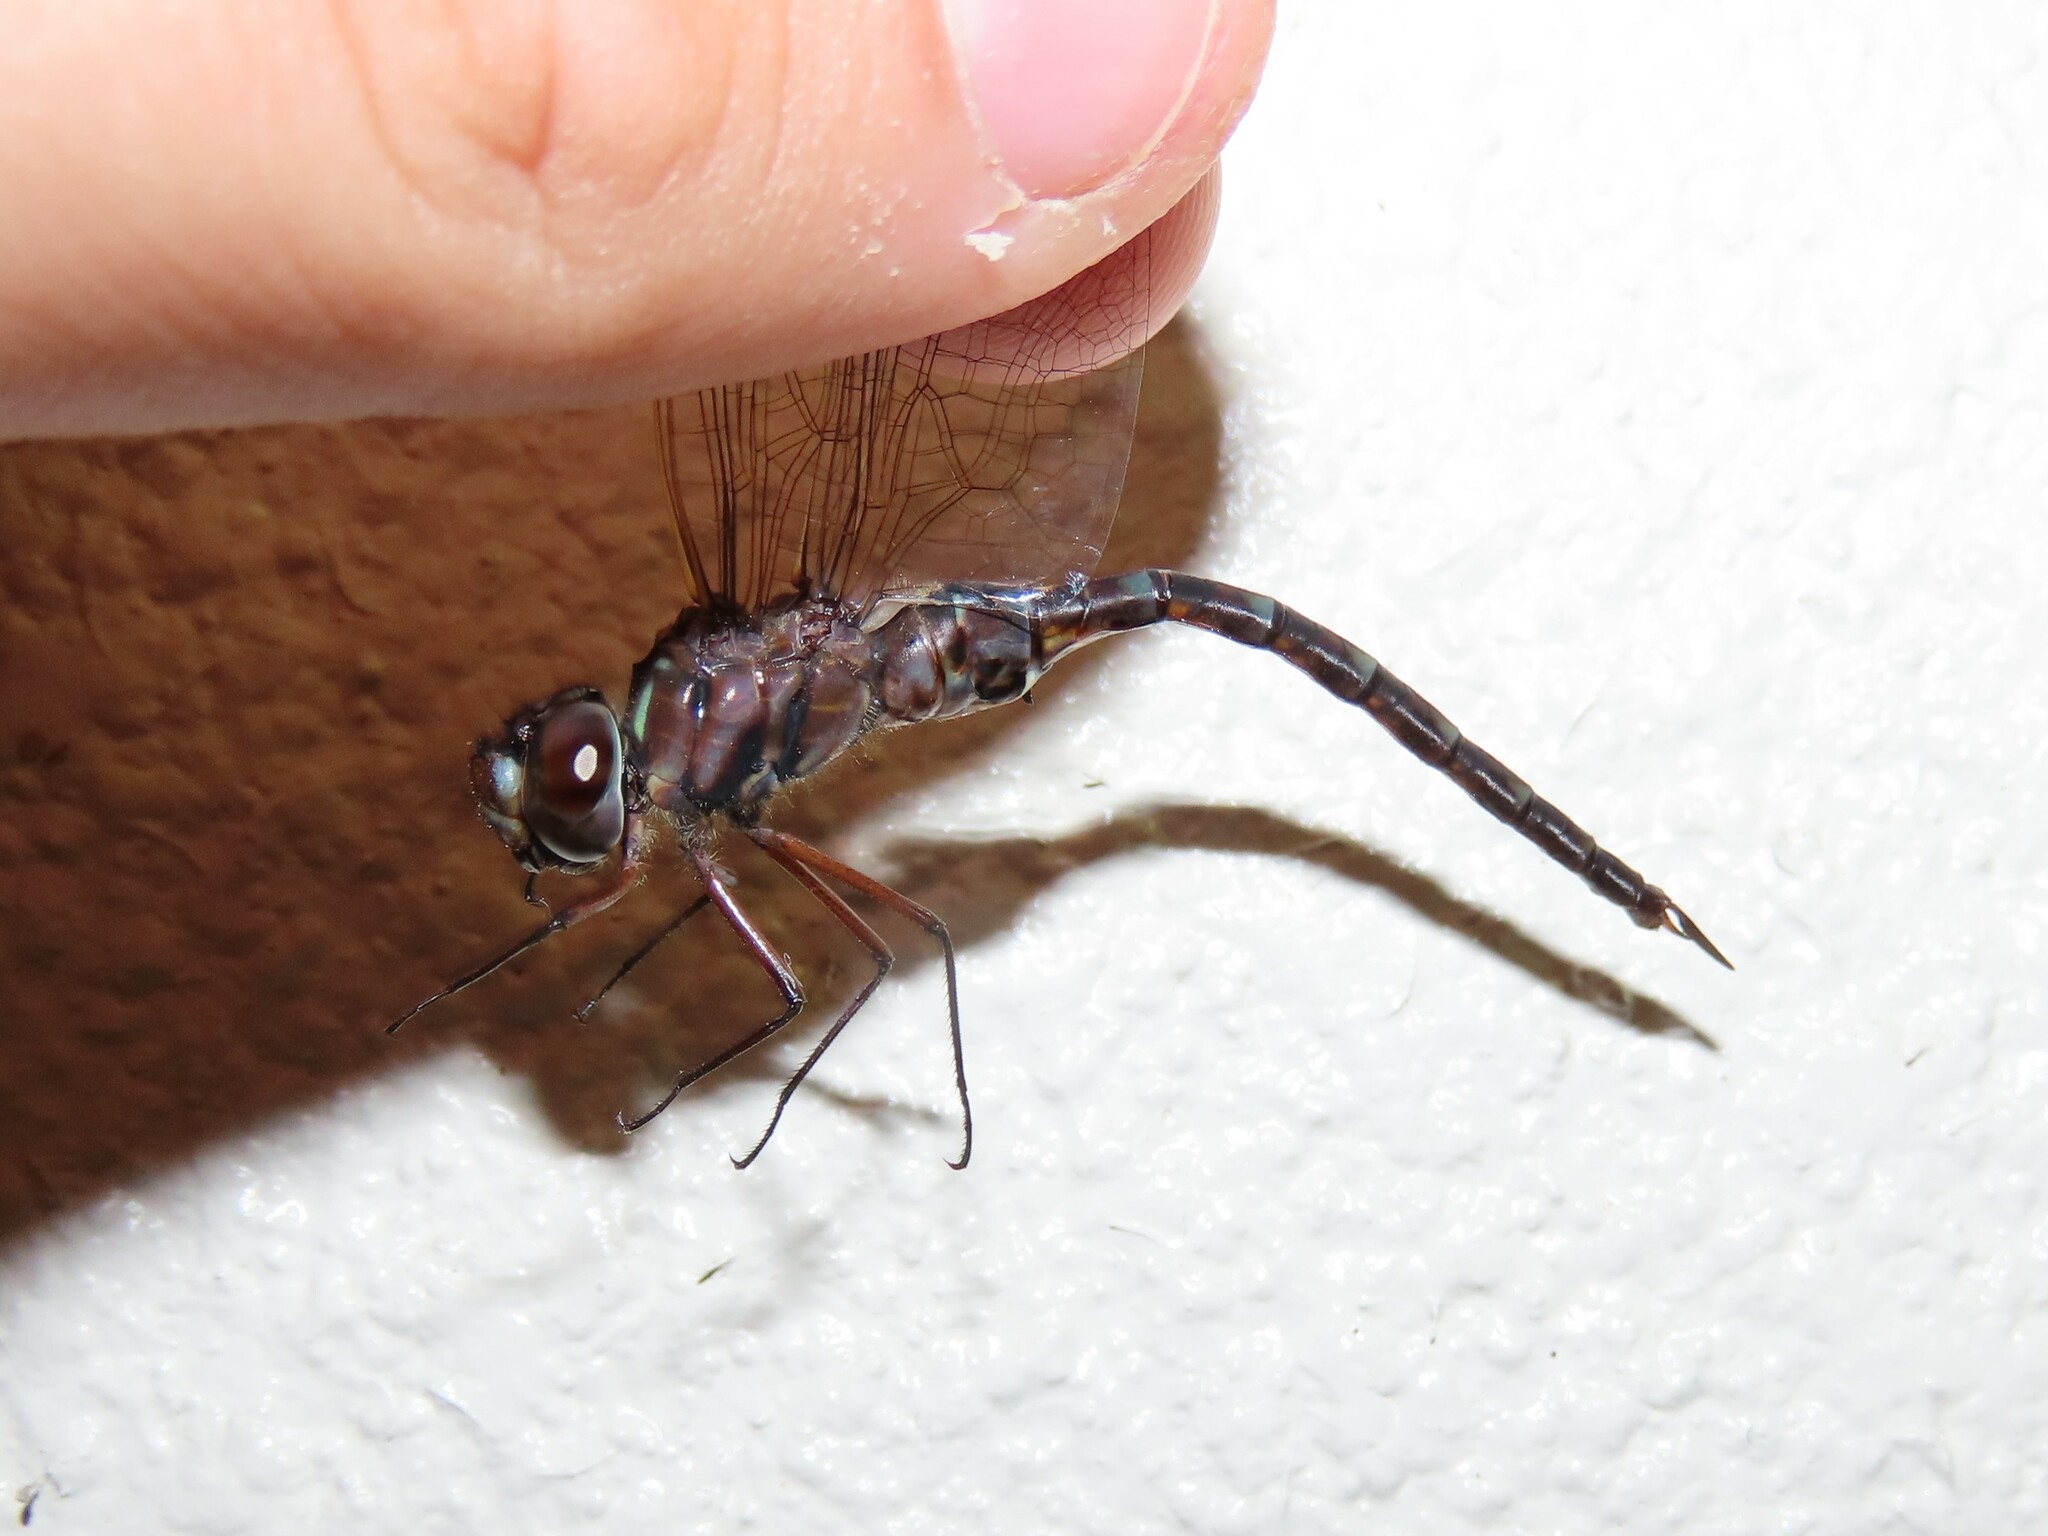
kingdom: Animalia
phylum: Arthropoda
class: Insecta
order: Odonata
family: Aeshnidae
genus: Gomphaeschna
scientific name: Gomphaeschna antilope
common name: Taper-tailed darner
